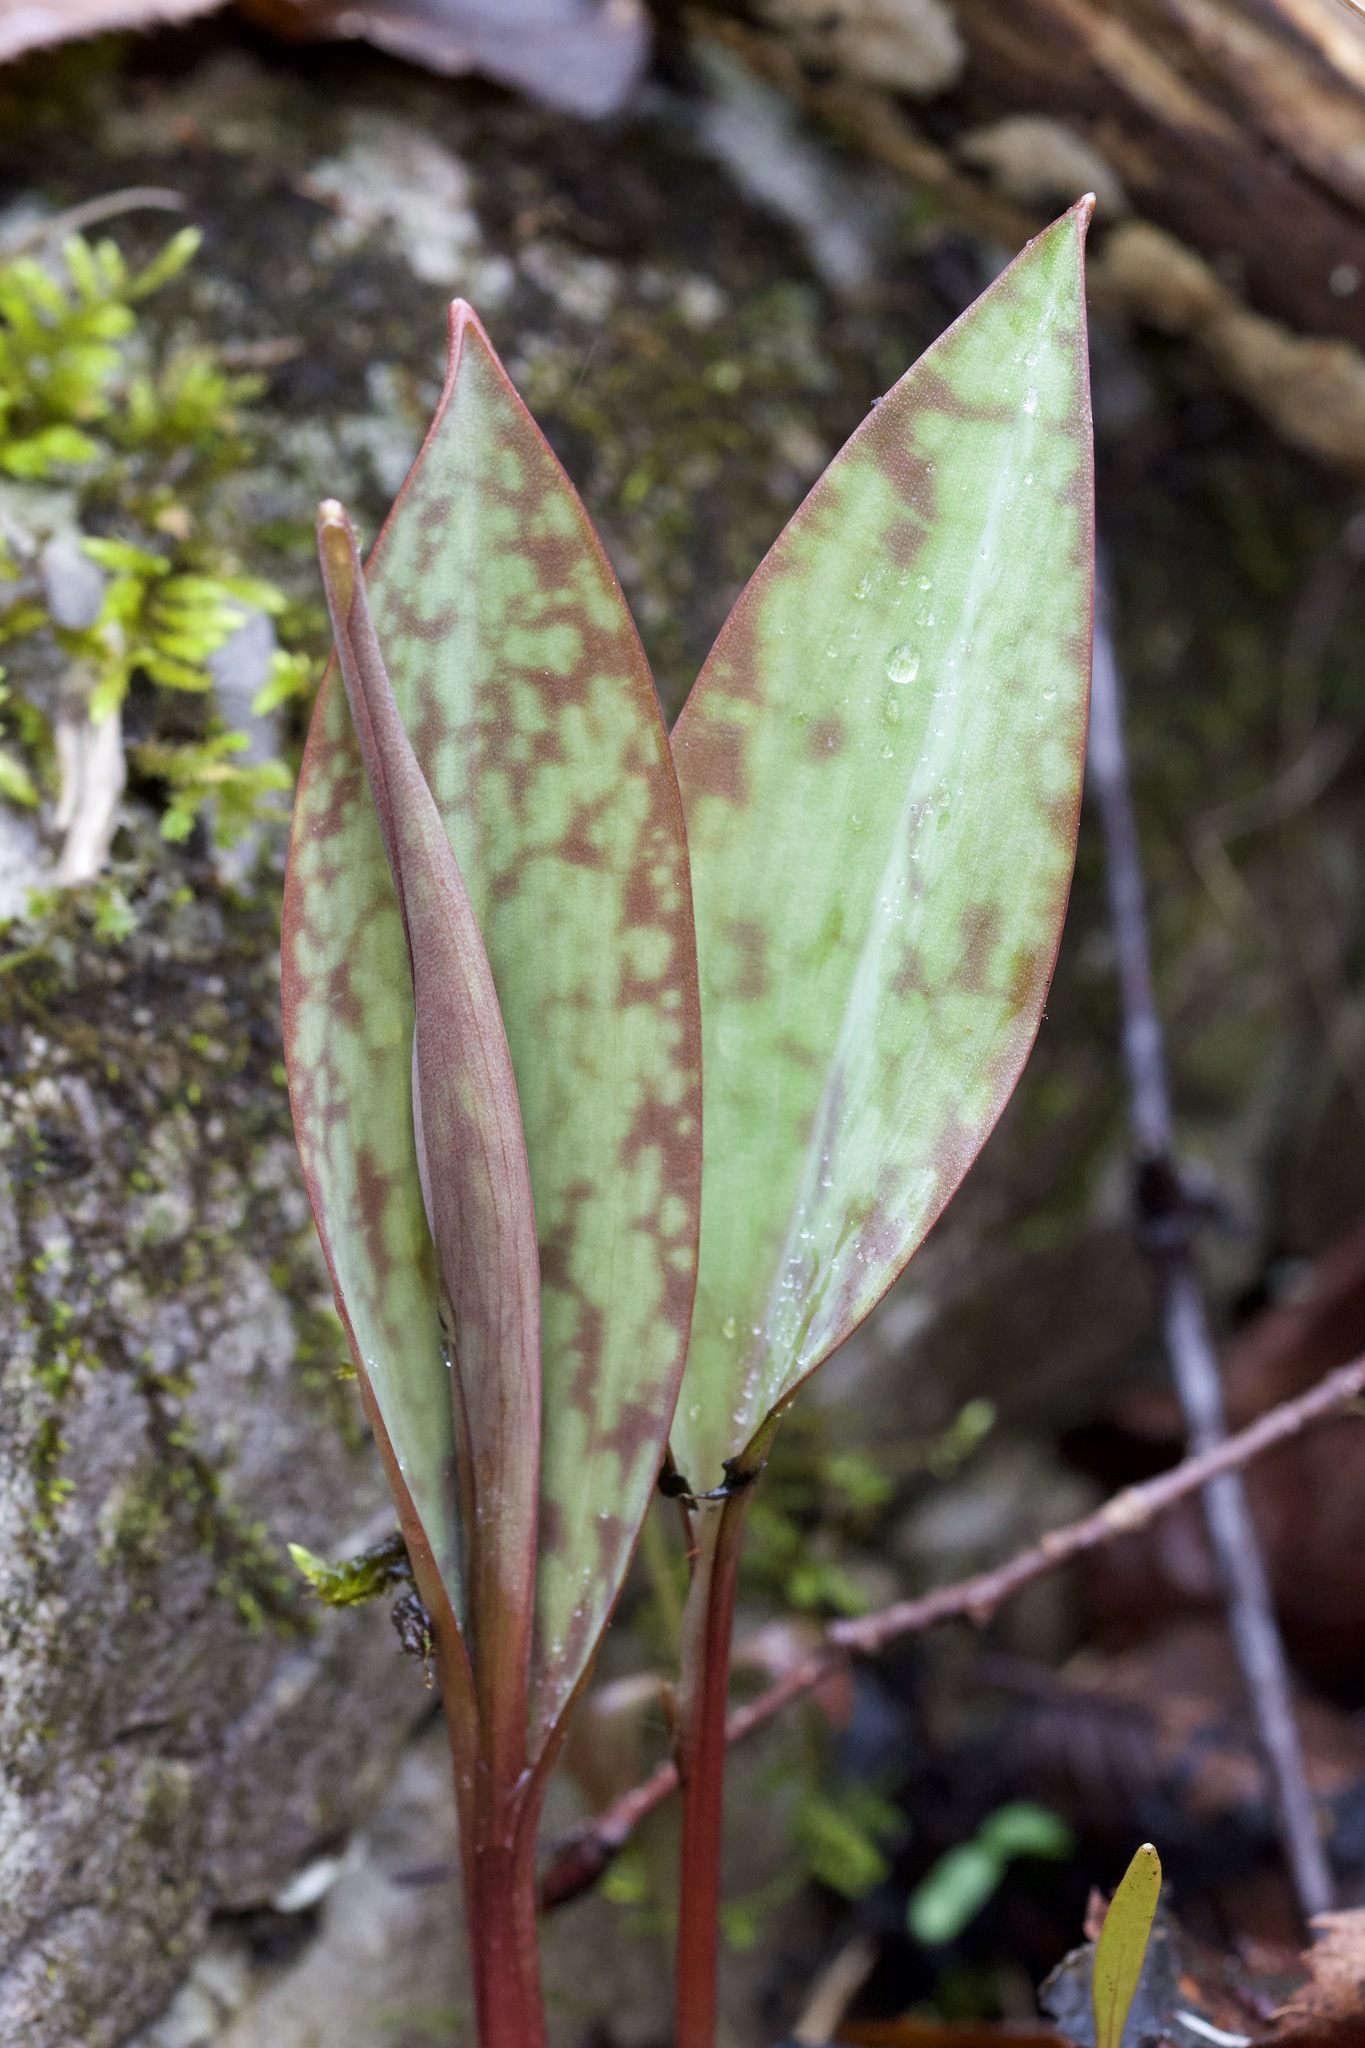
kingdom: Plantae
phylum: Tracheophyta
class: Liliopsida
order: Liliales
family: Liliaceae
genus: Erythronium
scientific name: Erythronium americanum
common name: Yellow adder's-tongue
